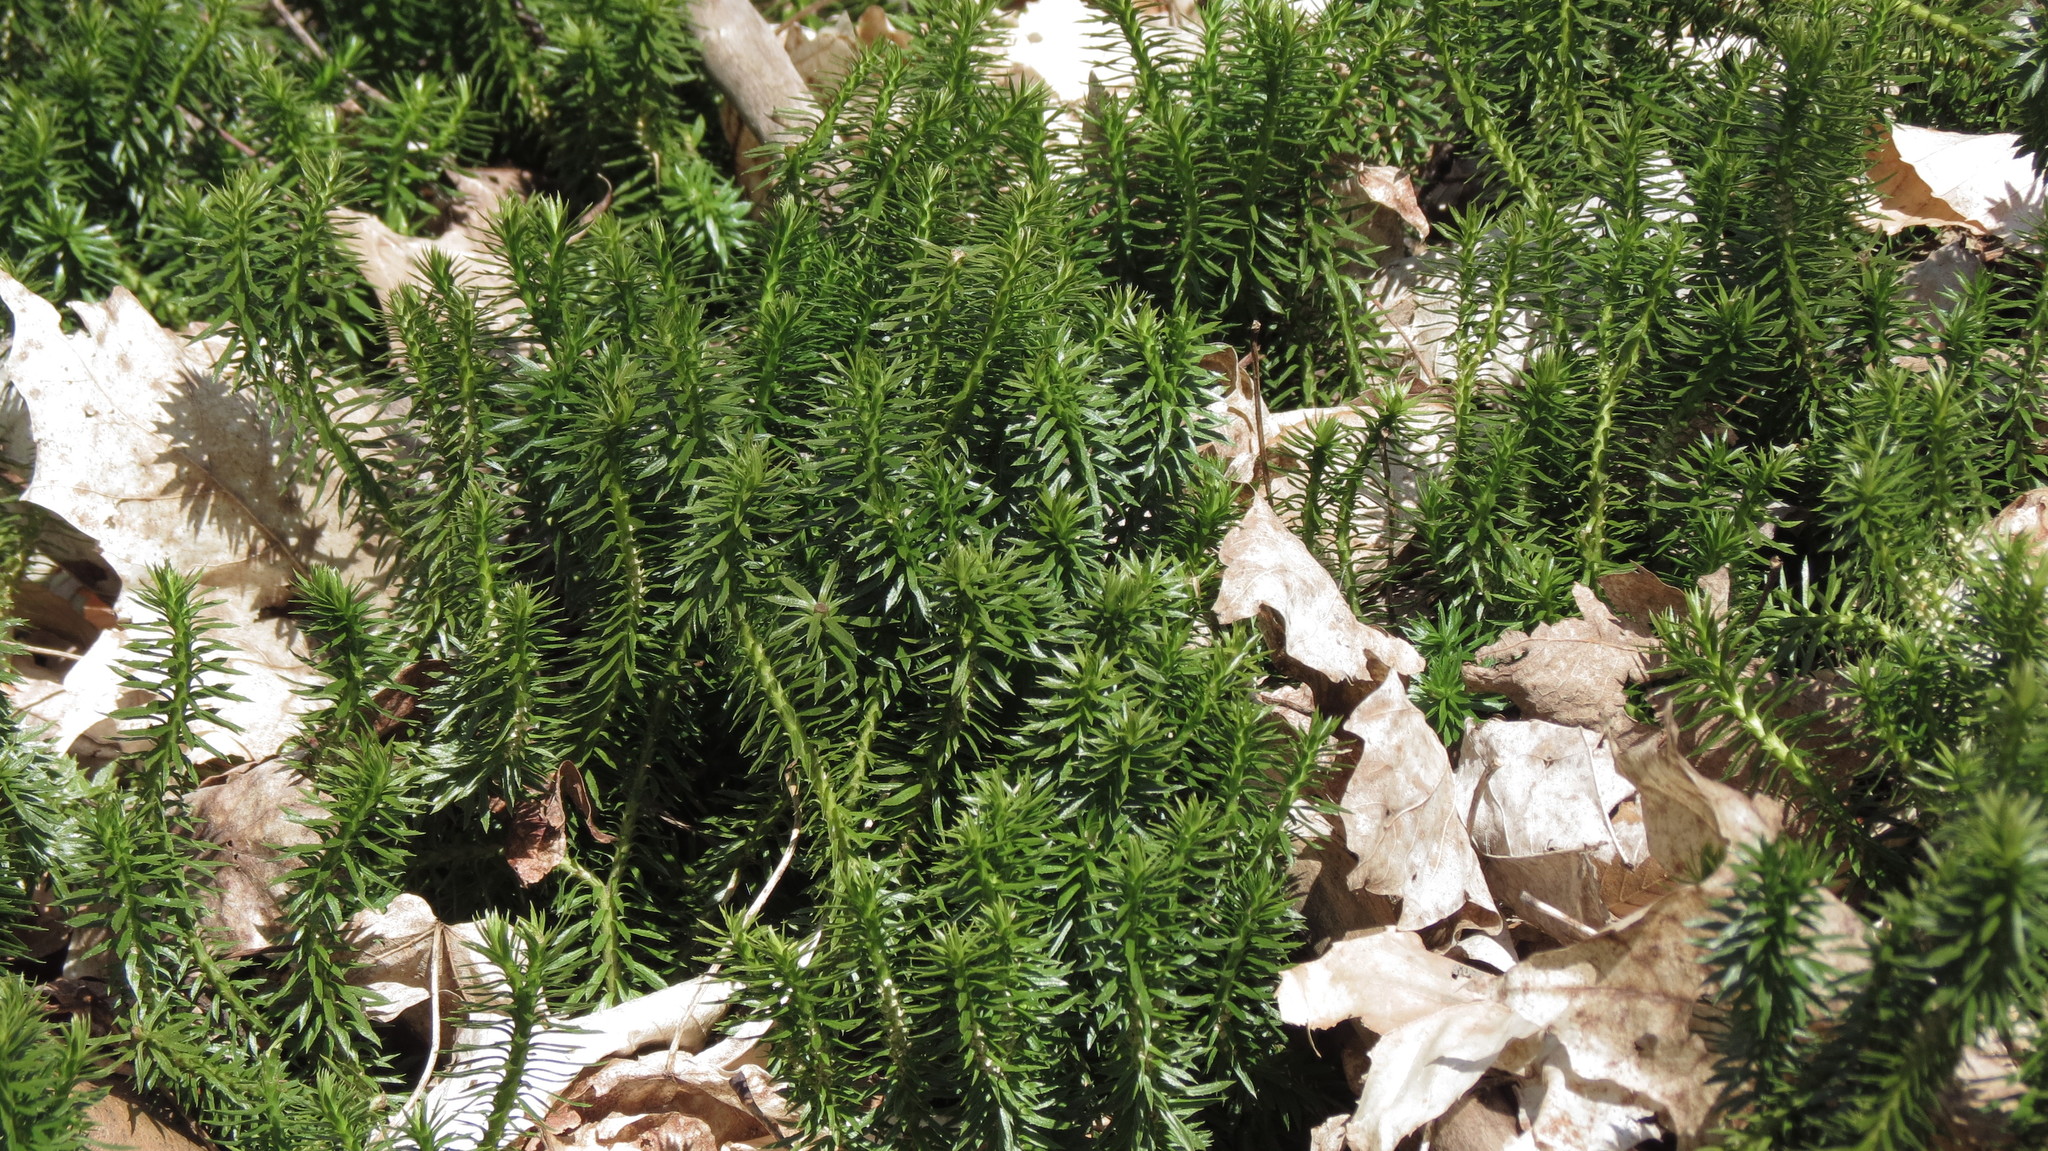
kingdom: Plantae
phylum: Tracheophyta
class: Lycopodiopsida
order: Lycopodiales
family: Lycopodiaceae
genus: Huperzia
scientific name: Huperzia lucidula
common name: Shining clubmoss
